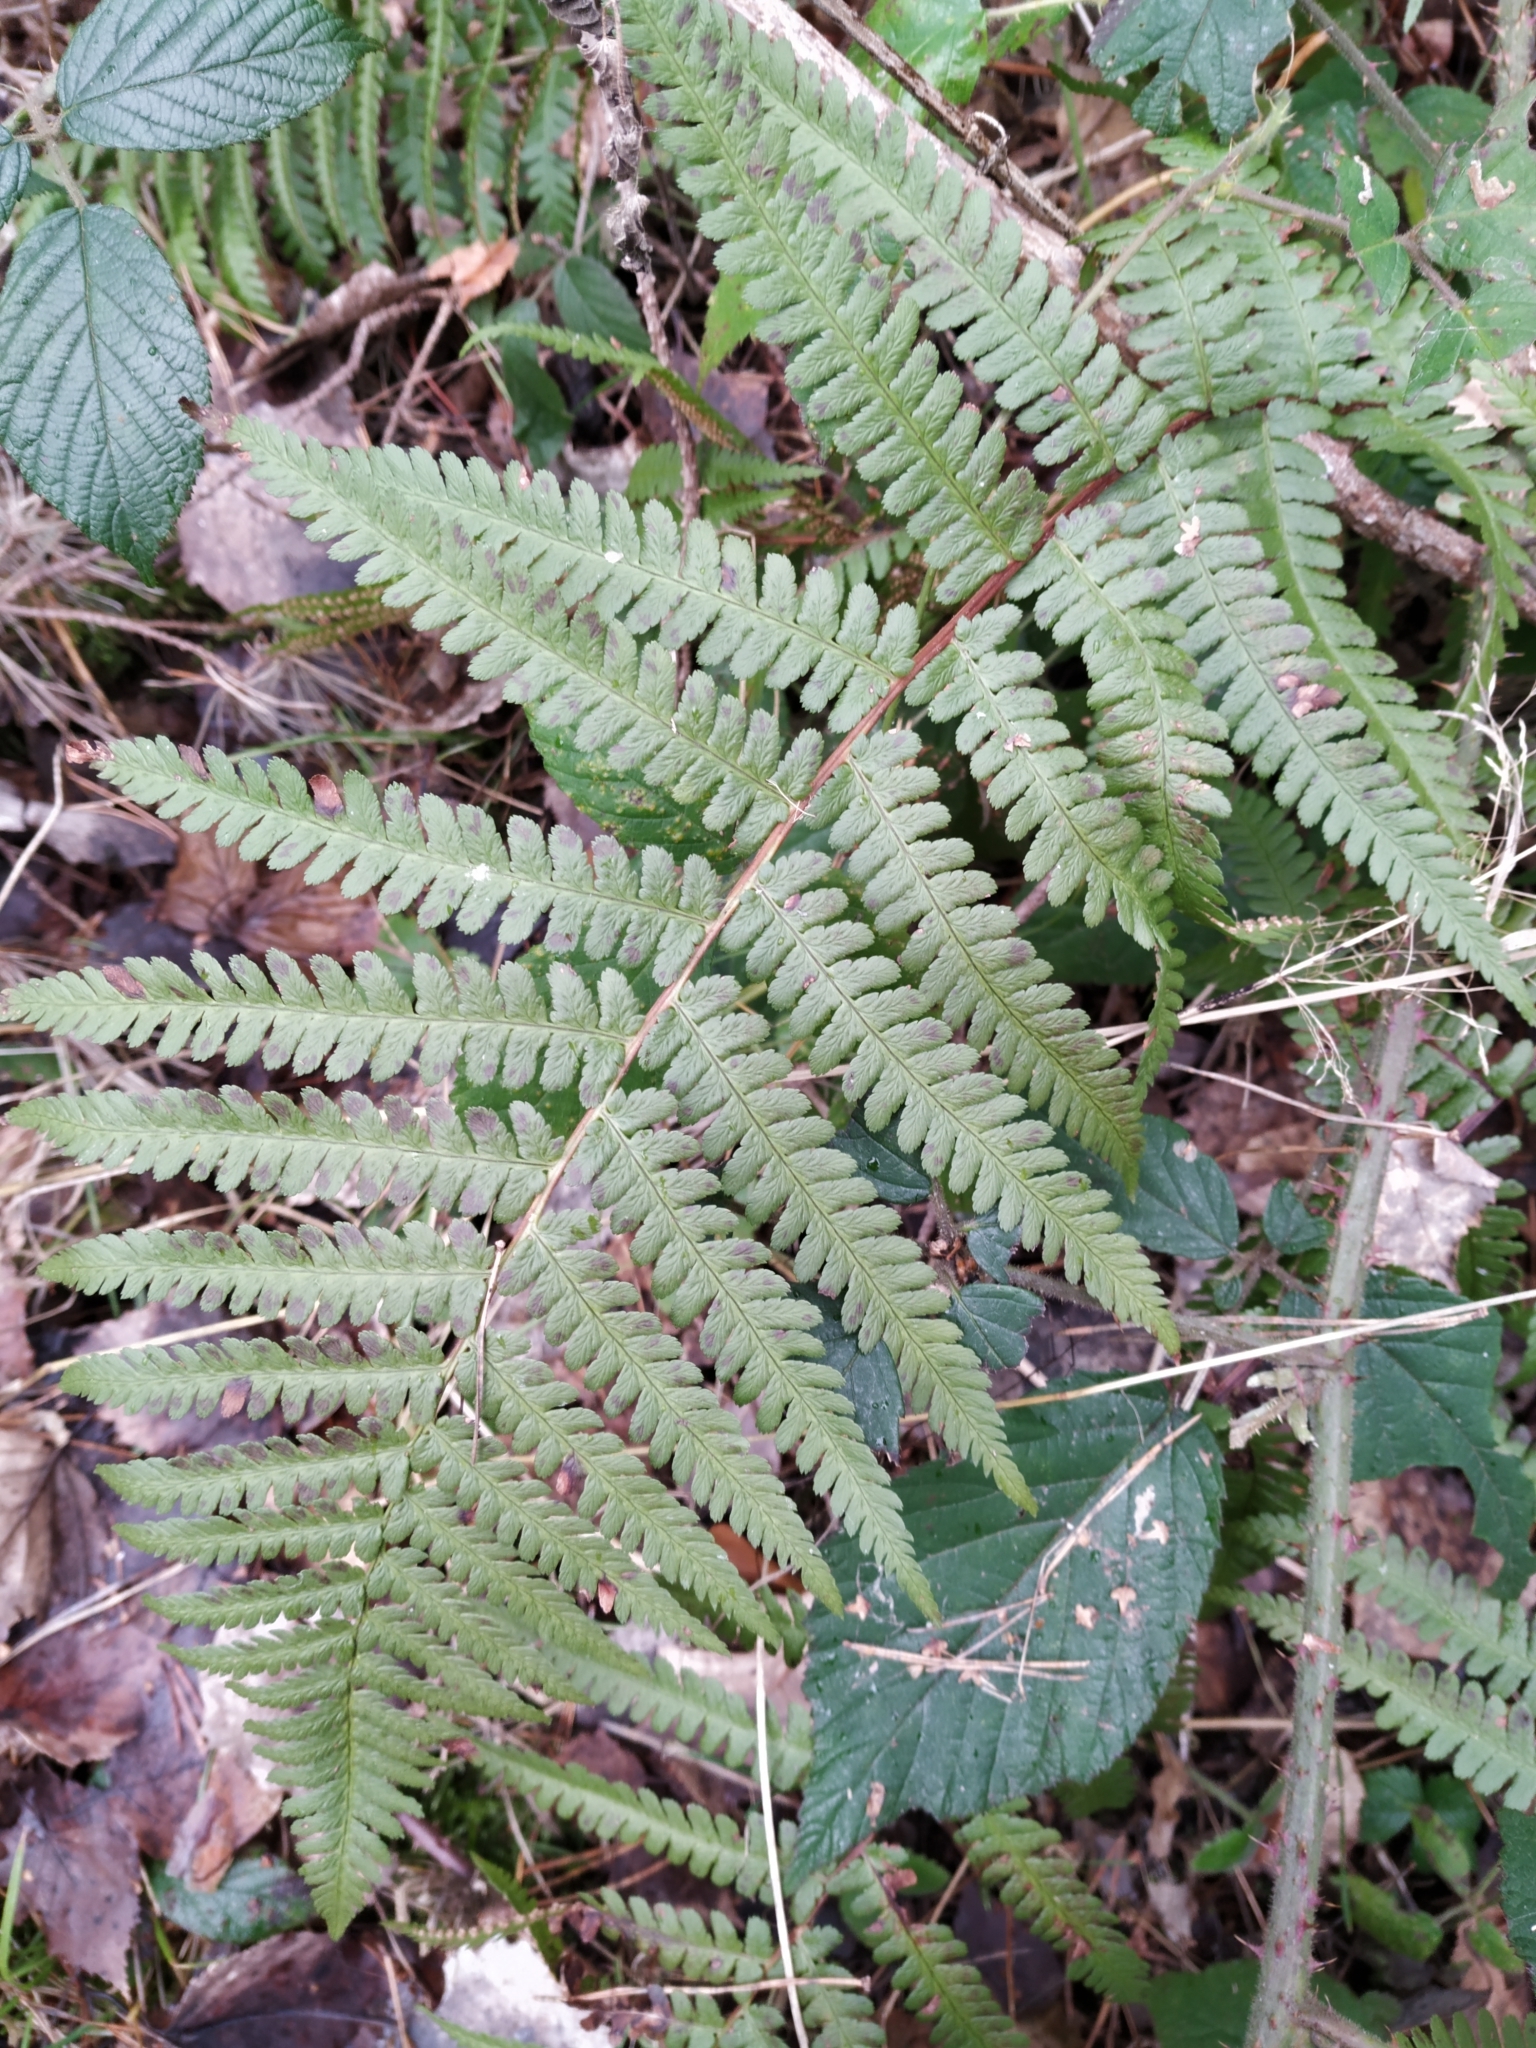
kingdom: Plantae
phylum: Tracheophyta
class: Polypodiopsida
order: Polypodiales
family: Dryopteridaceae
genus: Dryopteris
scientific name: Dryopteris filix-mas
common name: Male fern
